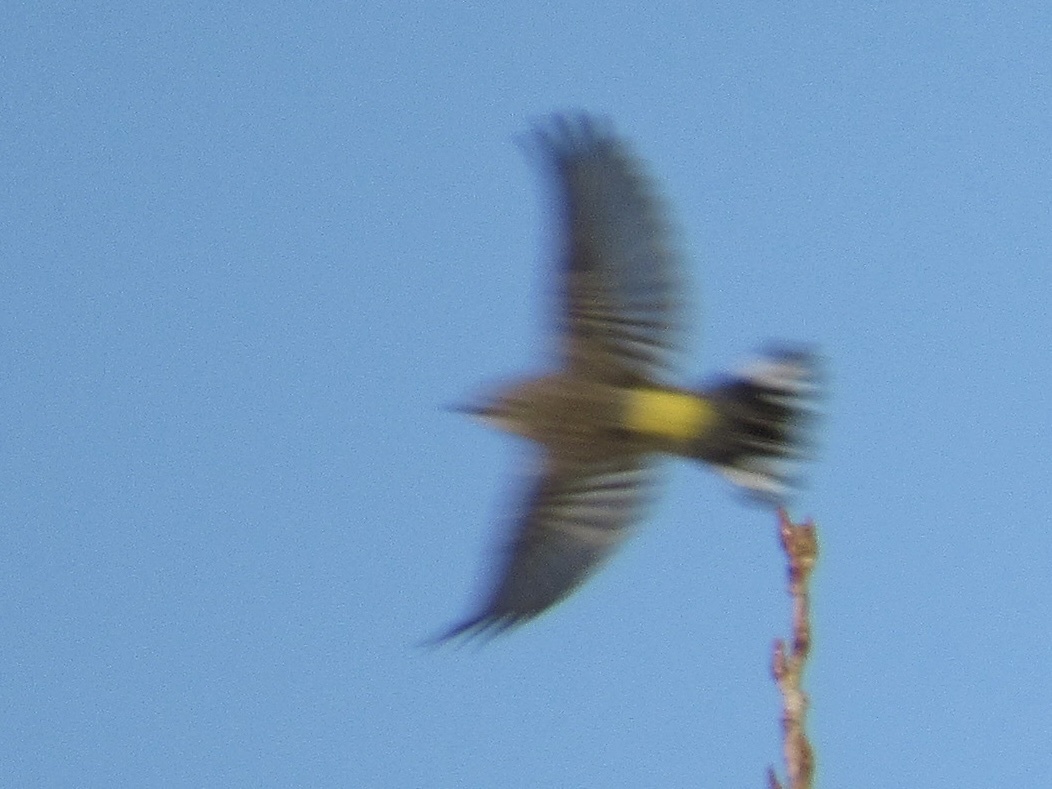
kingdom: Animalia
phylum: Chordata
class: Aves
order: Passeriformes
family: Parulidae
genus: Setophaga
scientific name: Setophaga coronata
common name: Myrtle warbler
